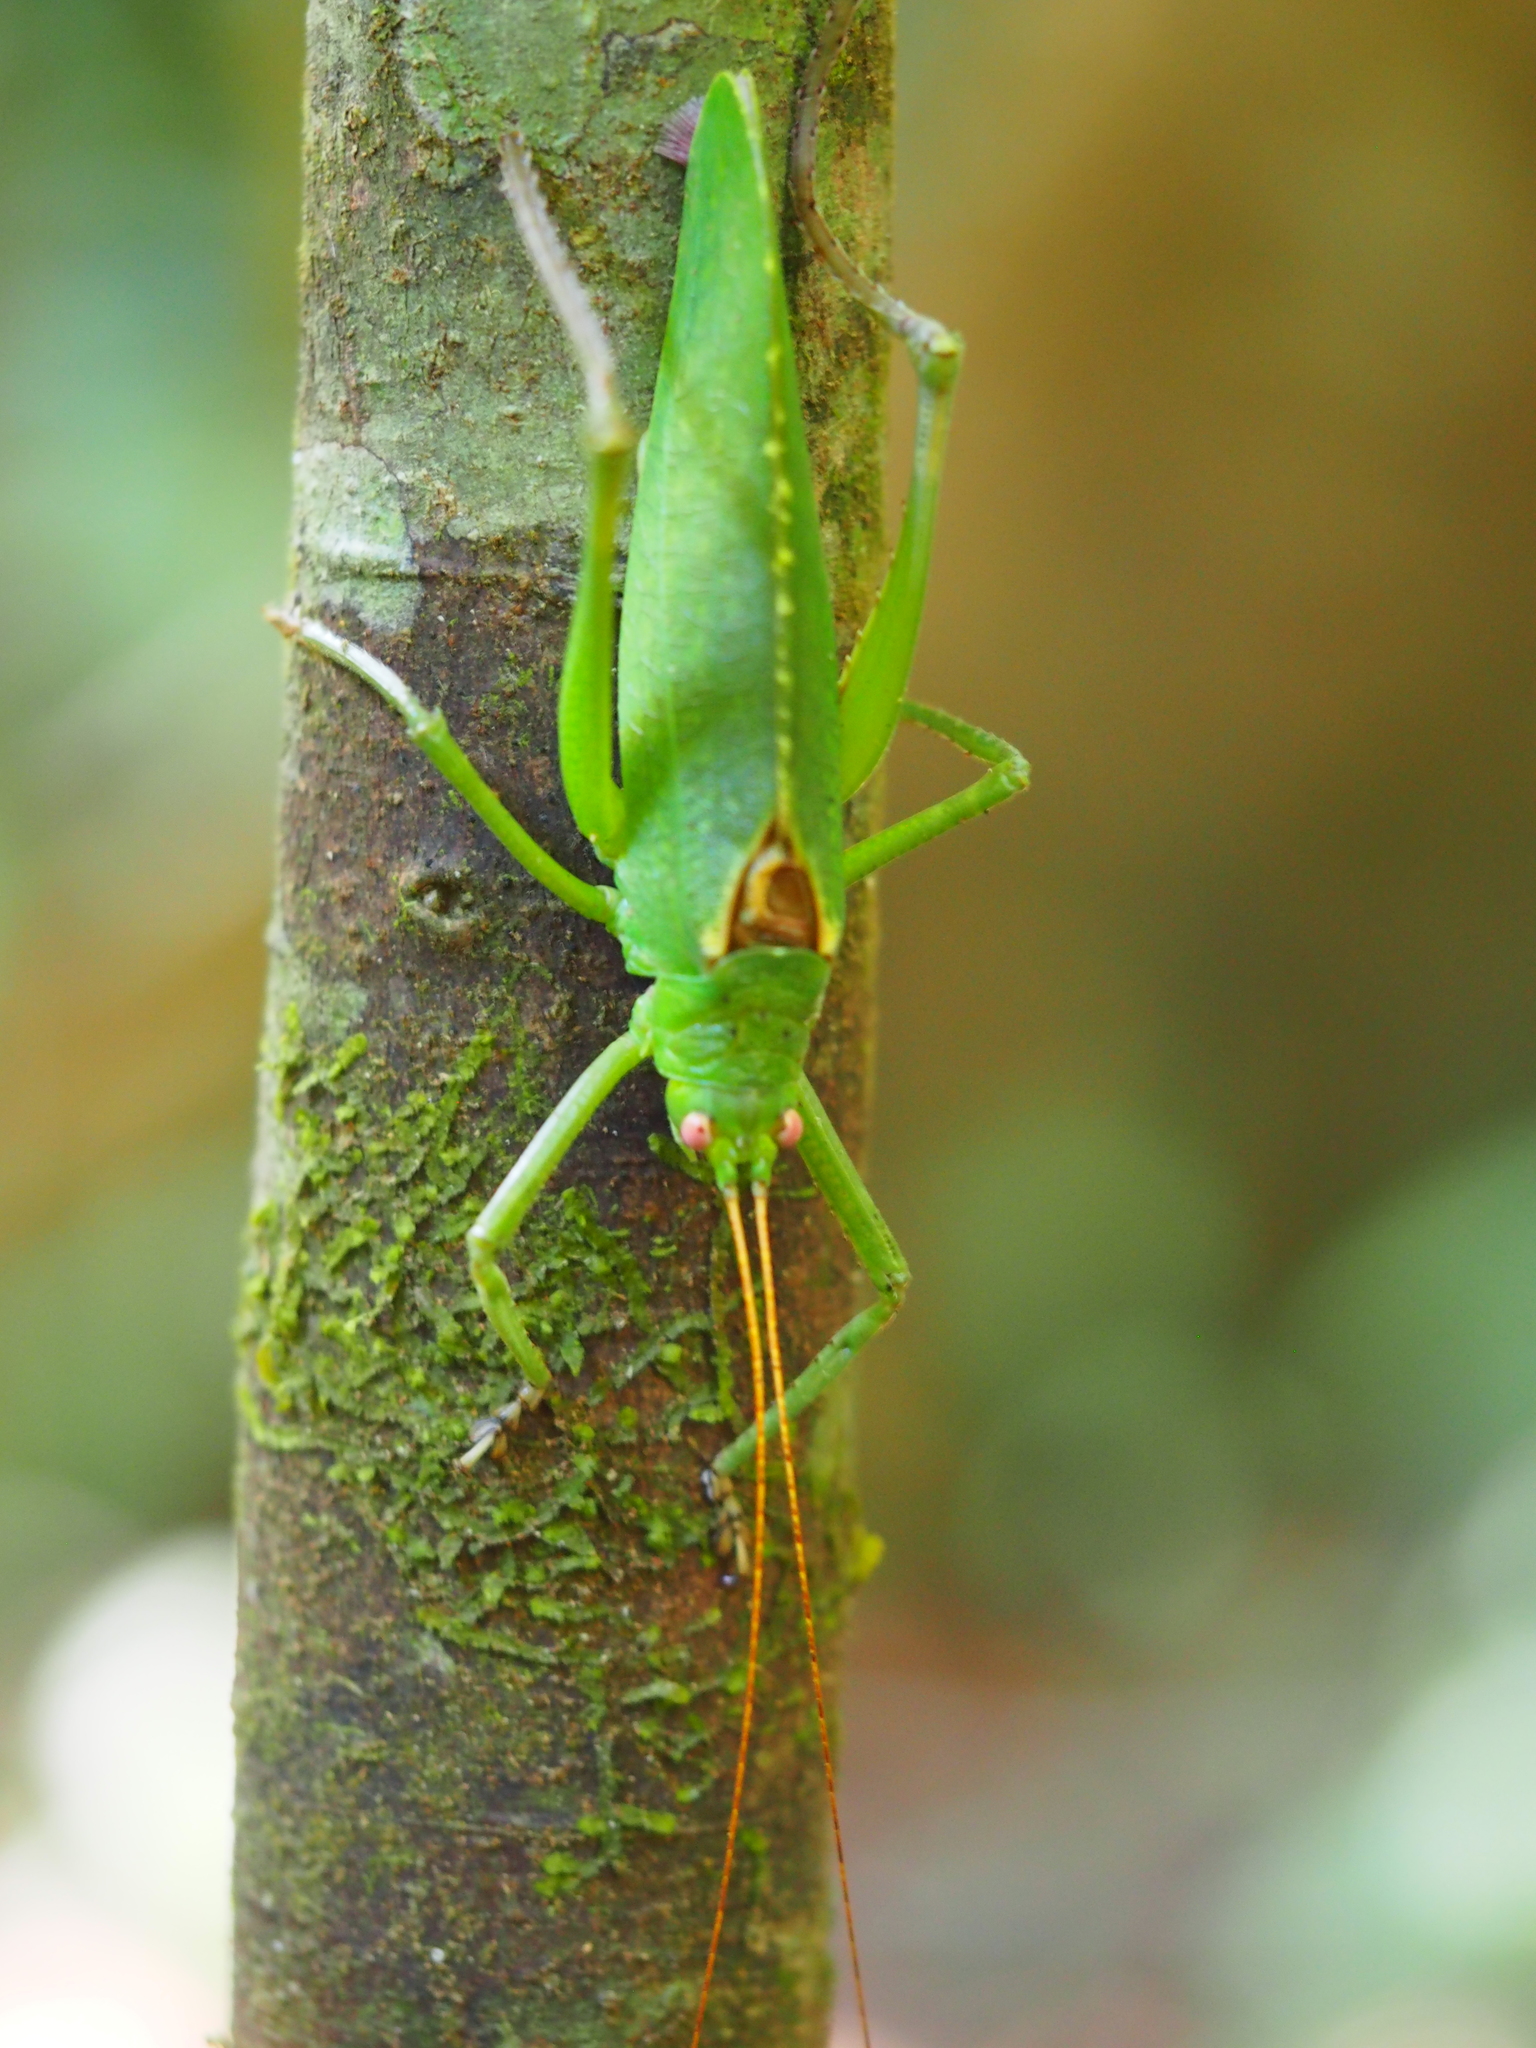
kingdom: Animalia
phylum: Arthropoda
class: Insecta
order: Orthoptera
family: Tettigoniidae
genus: Diophanes
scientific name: Diophanes rosescens
